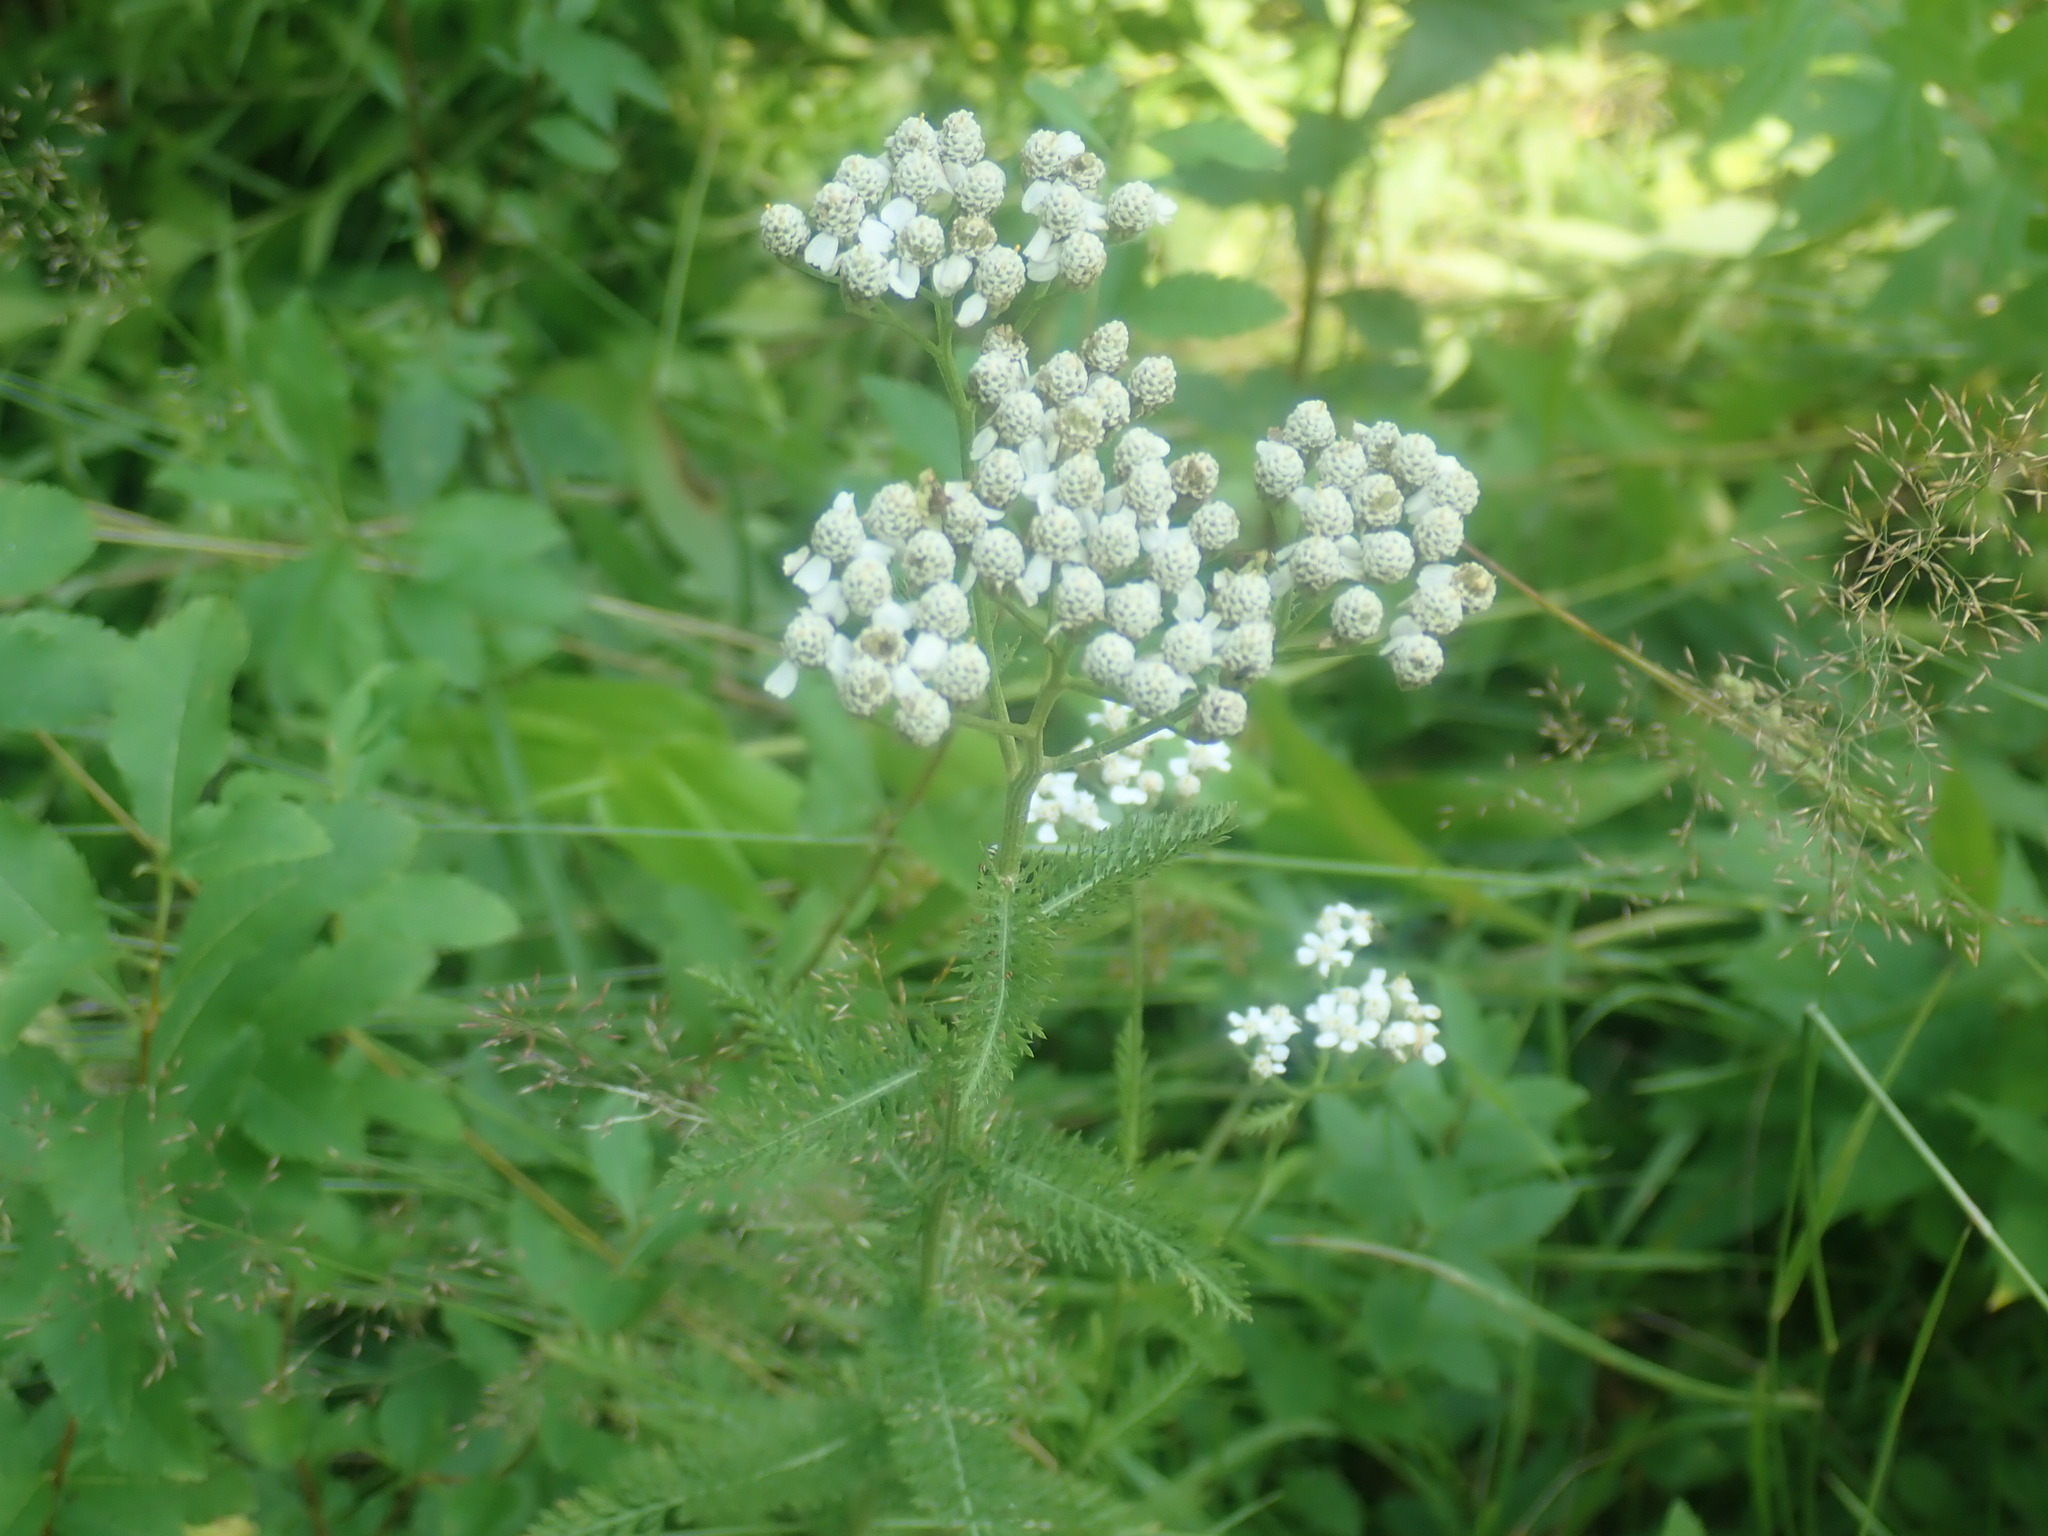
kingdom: Plantae
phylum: Tracheophyta
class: Magnoliopsida
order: Asterales
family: Asteraceae
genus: Achillea
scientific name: Achillea millefolium
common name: Yarrow
